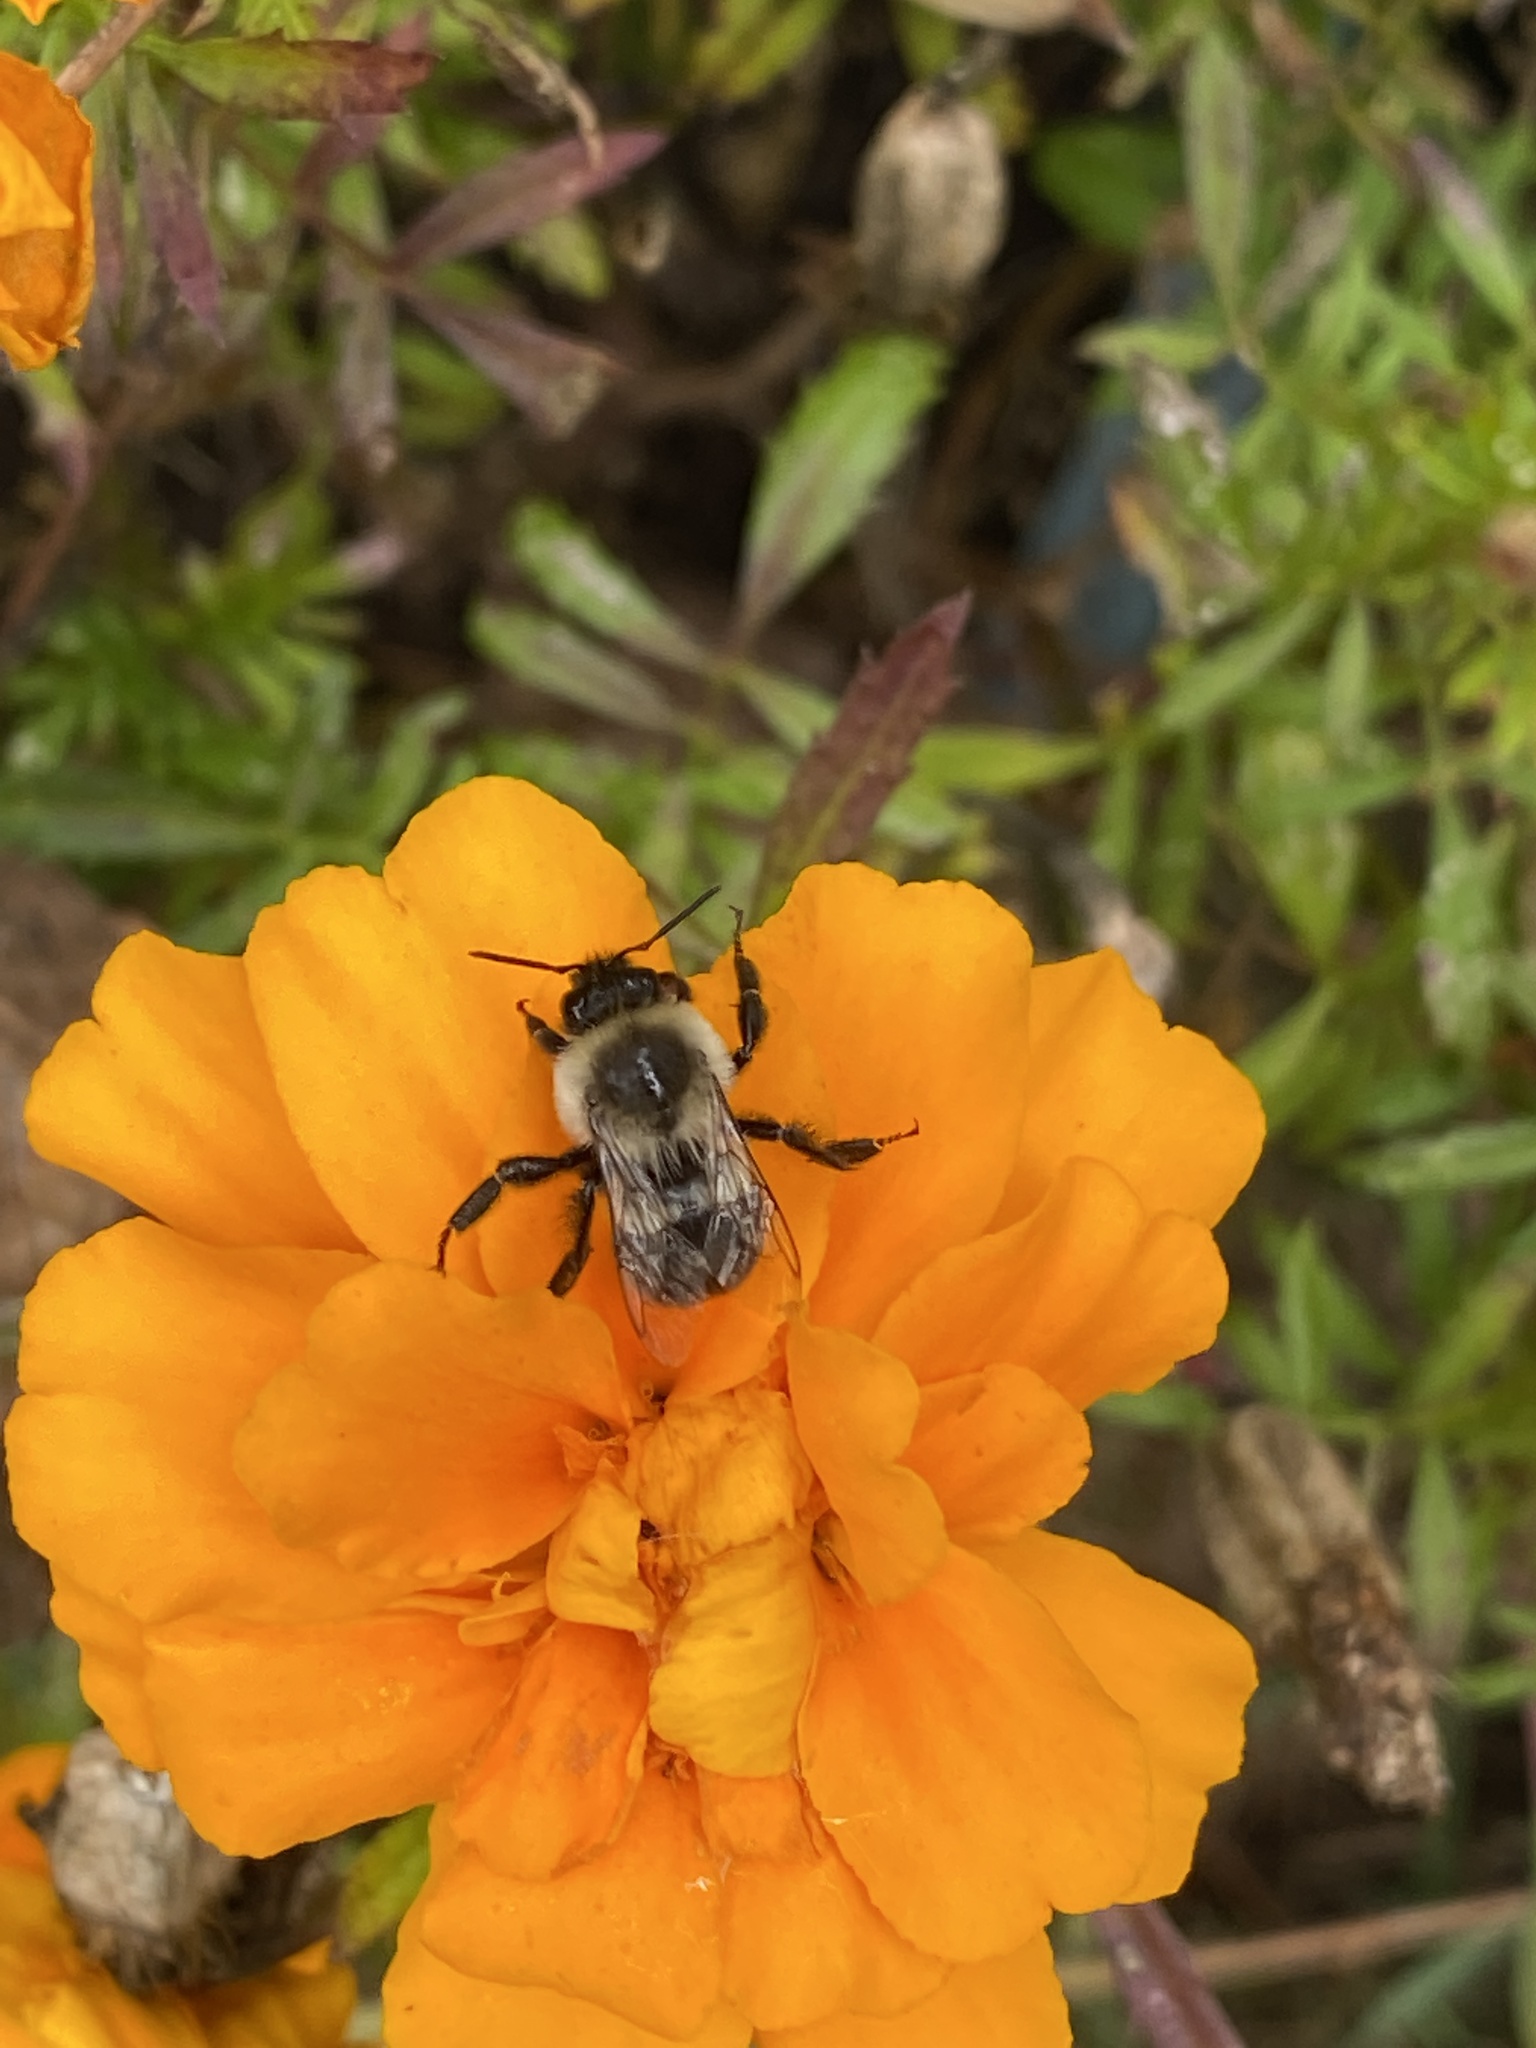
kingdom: Animalia
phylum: Arthropoda
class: Insecta
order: Hymenoptera
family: Apidae
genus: Bombus
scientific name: Bombus impatiens
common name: Common eastern bumble bee
